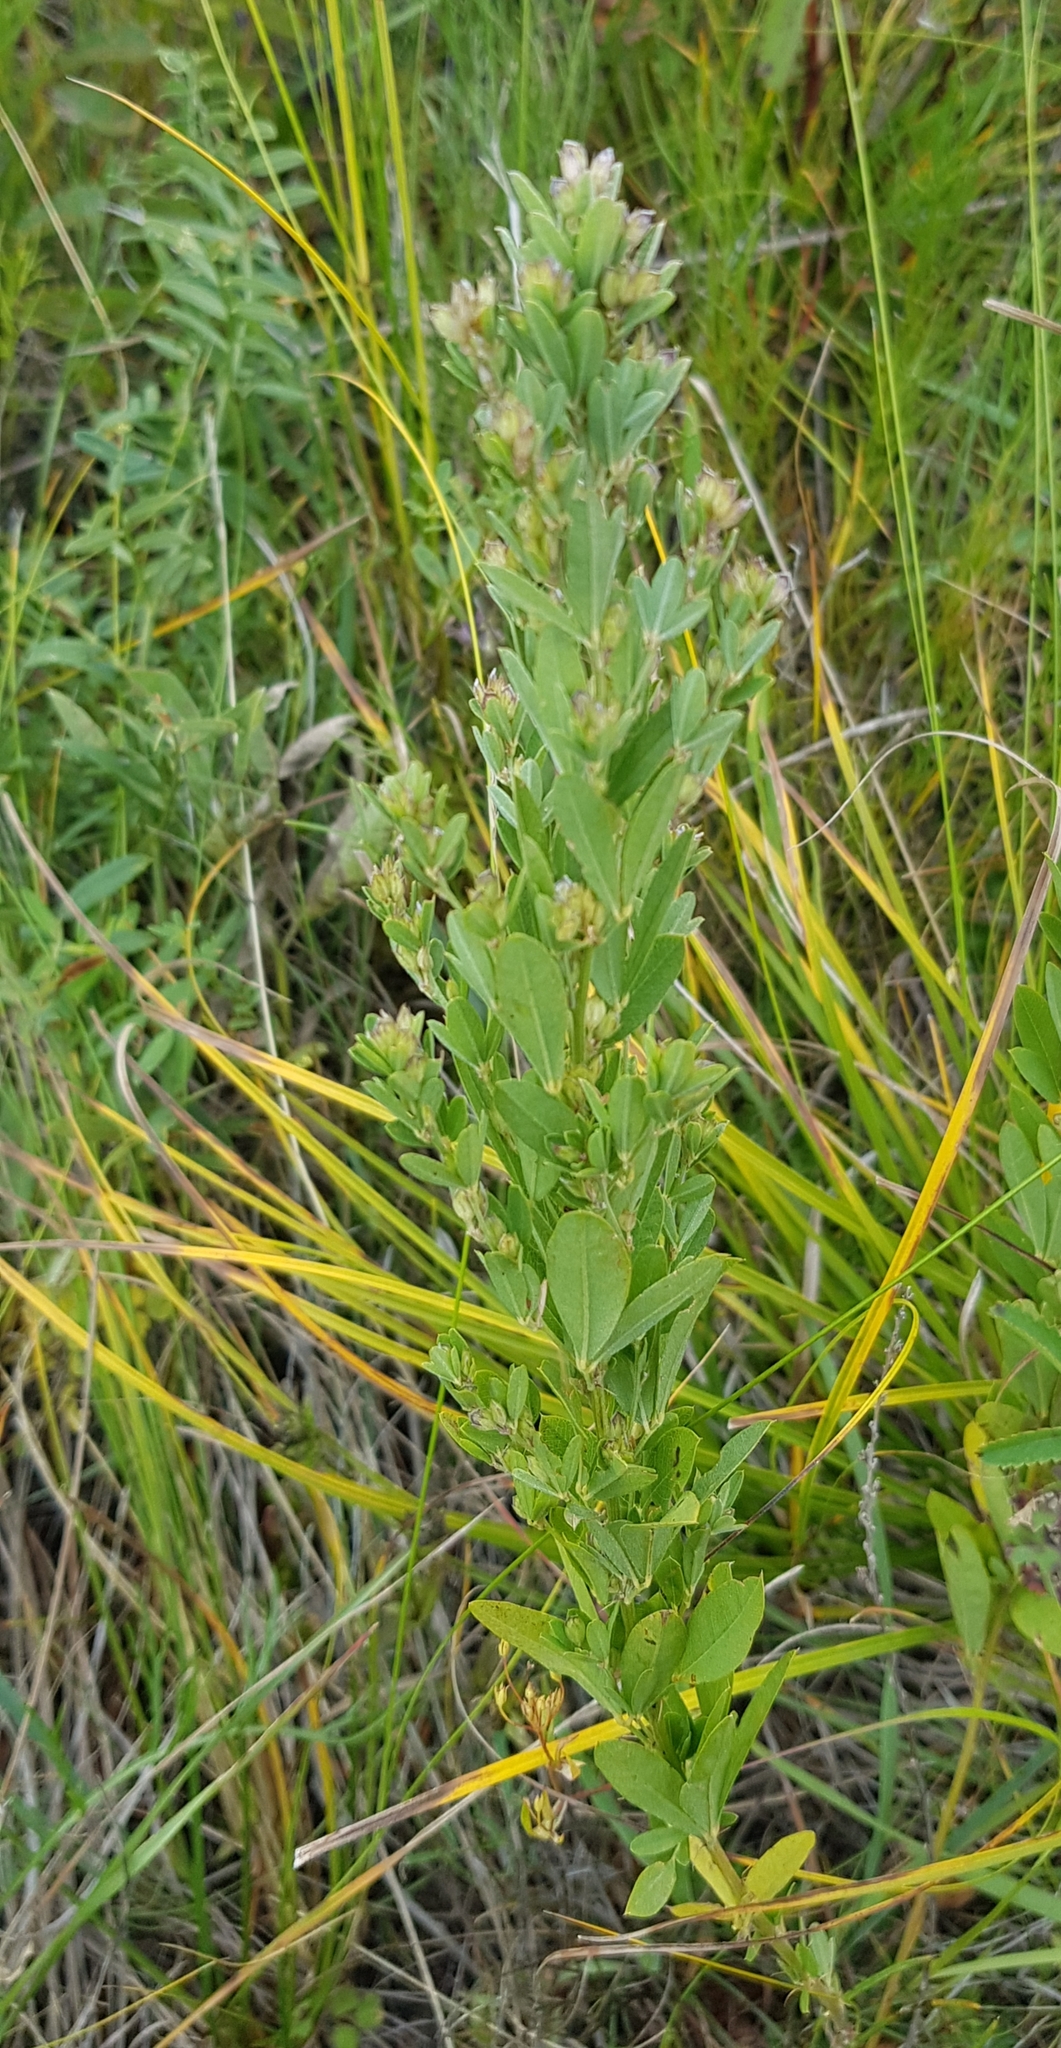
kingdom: Plantae
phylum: Tracheophyta
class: Magnoliopsida
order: Fabales
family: Fabaceae
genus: Lespedeza
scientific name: Lespedeza daurica
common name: Dahurian lespedeza
